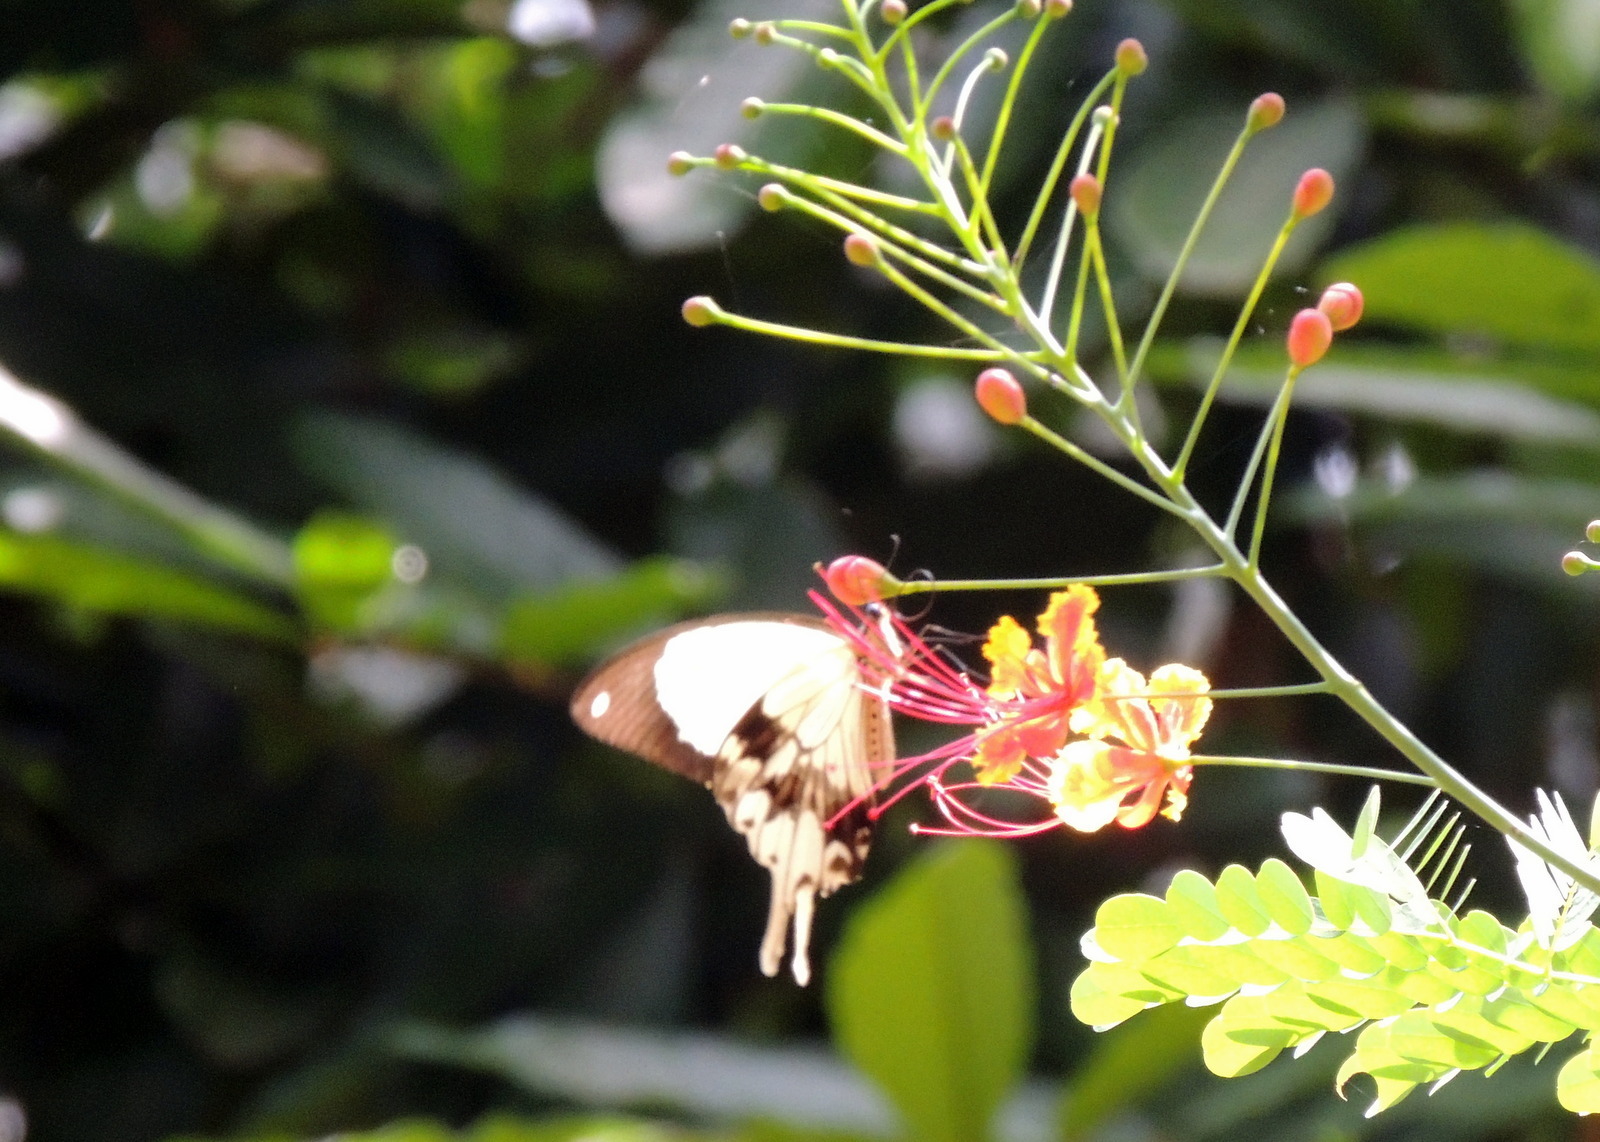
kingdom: Animalia
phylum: Arthropoda
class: Insecta
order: Lepidoptera
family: Papilionidae
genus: Papilio
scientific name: Papilio dardanus
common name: Flying handkerchief
